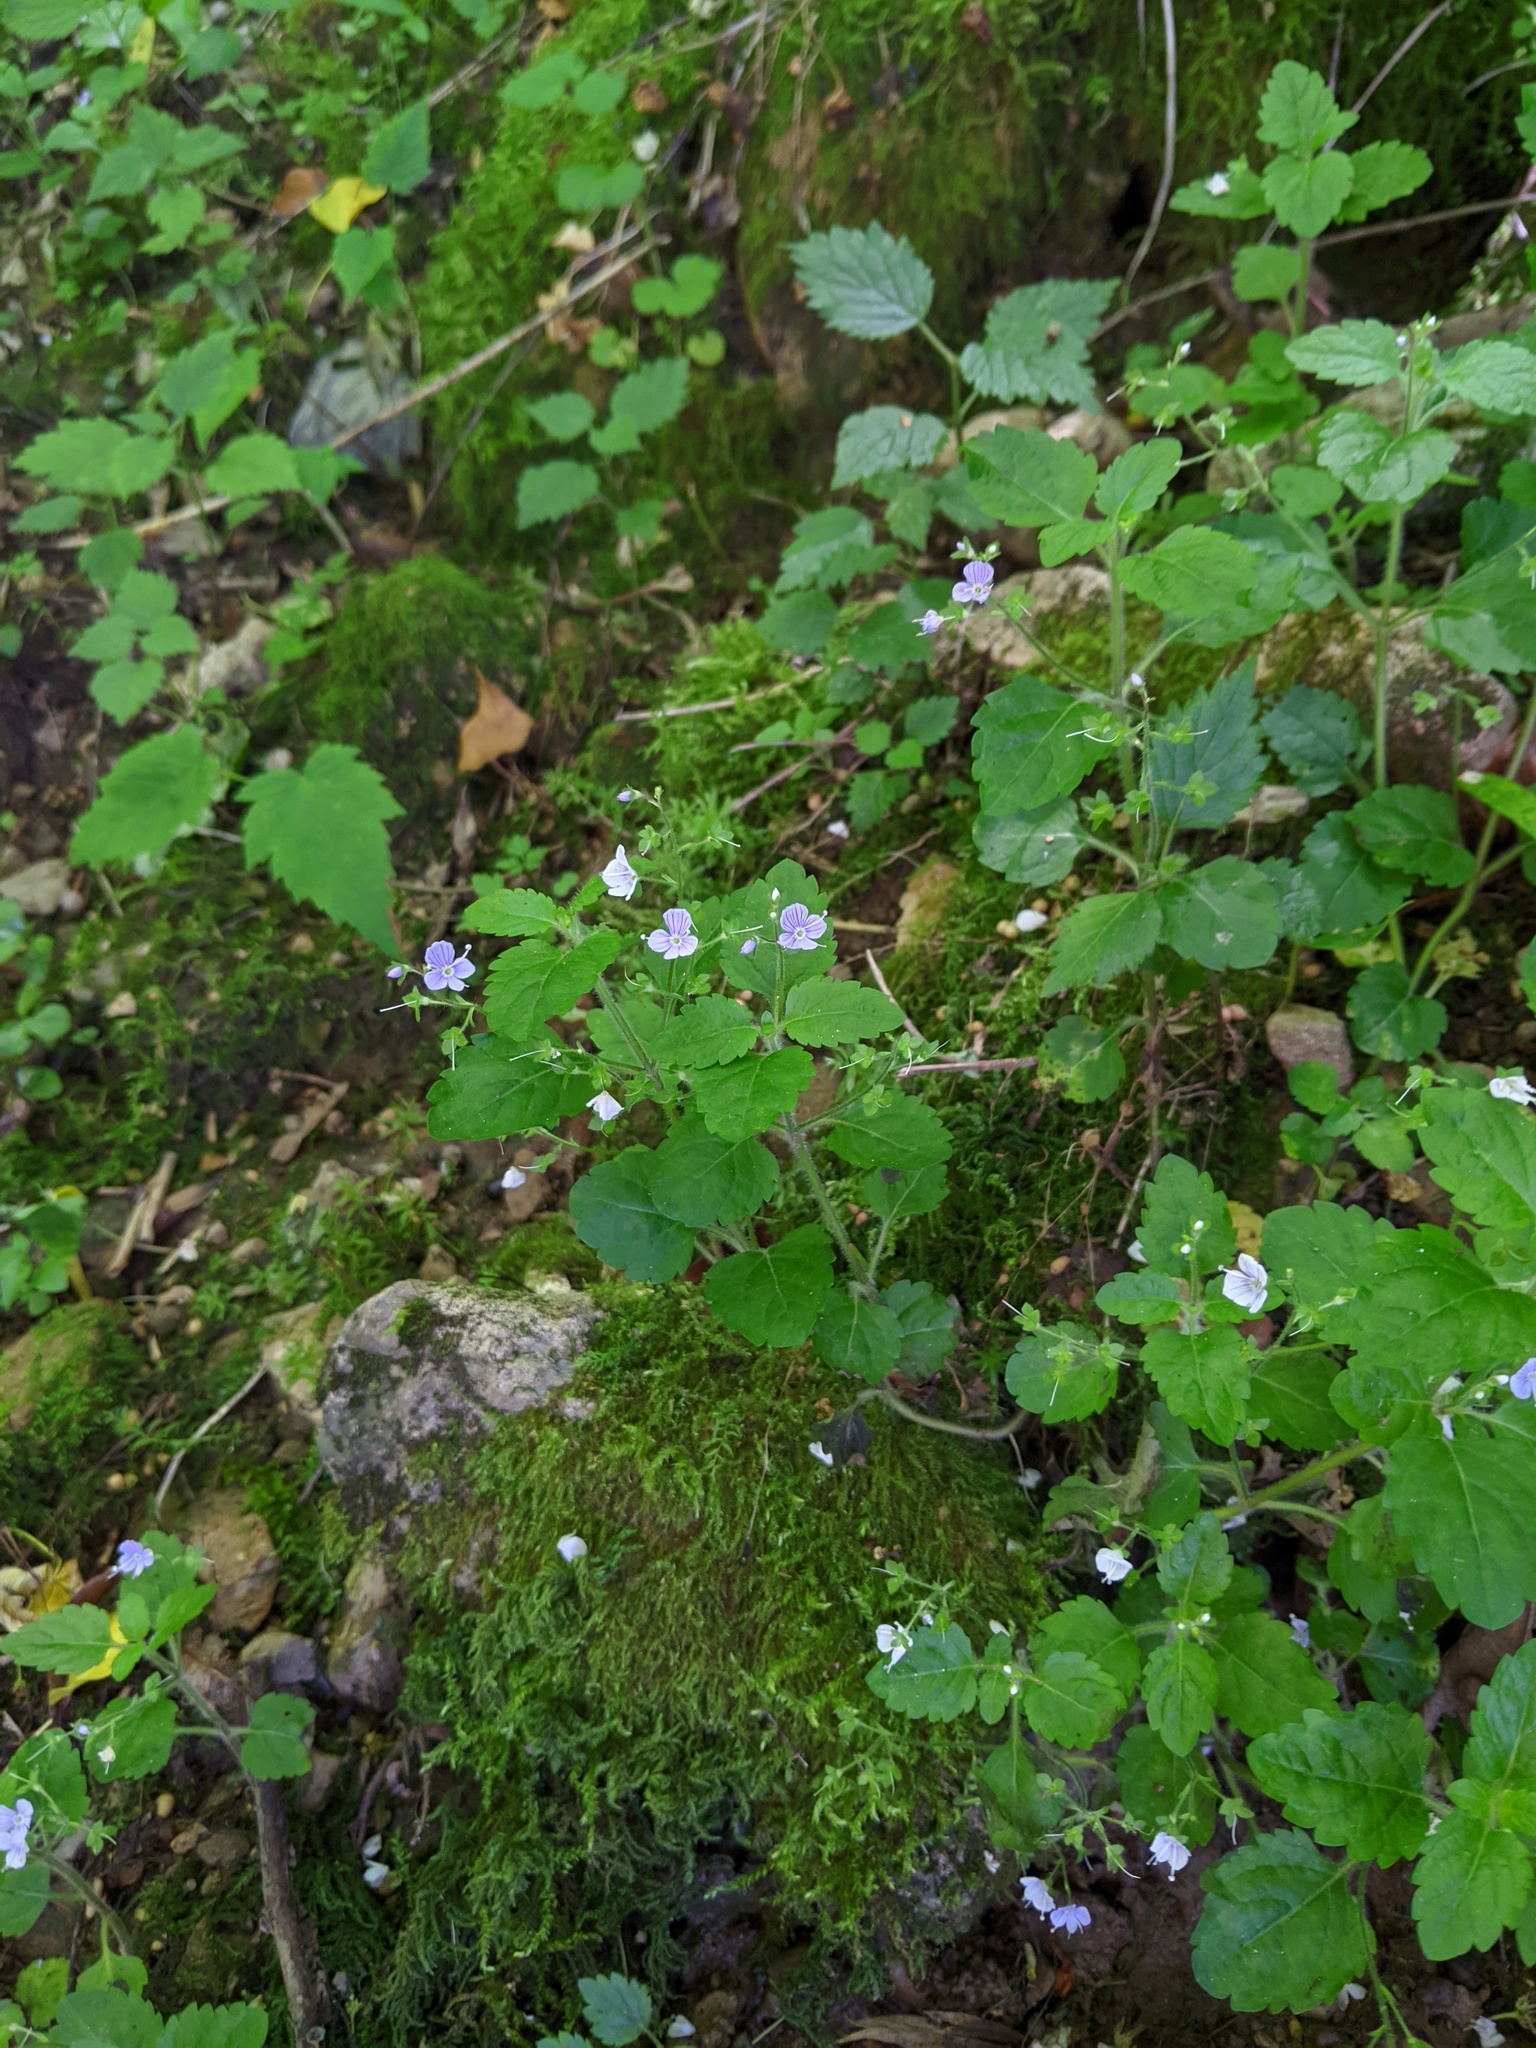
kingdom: Plantae
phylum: Tracheophyta
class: Magnoliopsida
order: Lamiales
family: Plantaginaceae
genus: Veronica
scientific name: Veronica montana
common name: Wood speedwell
